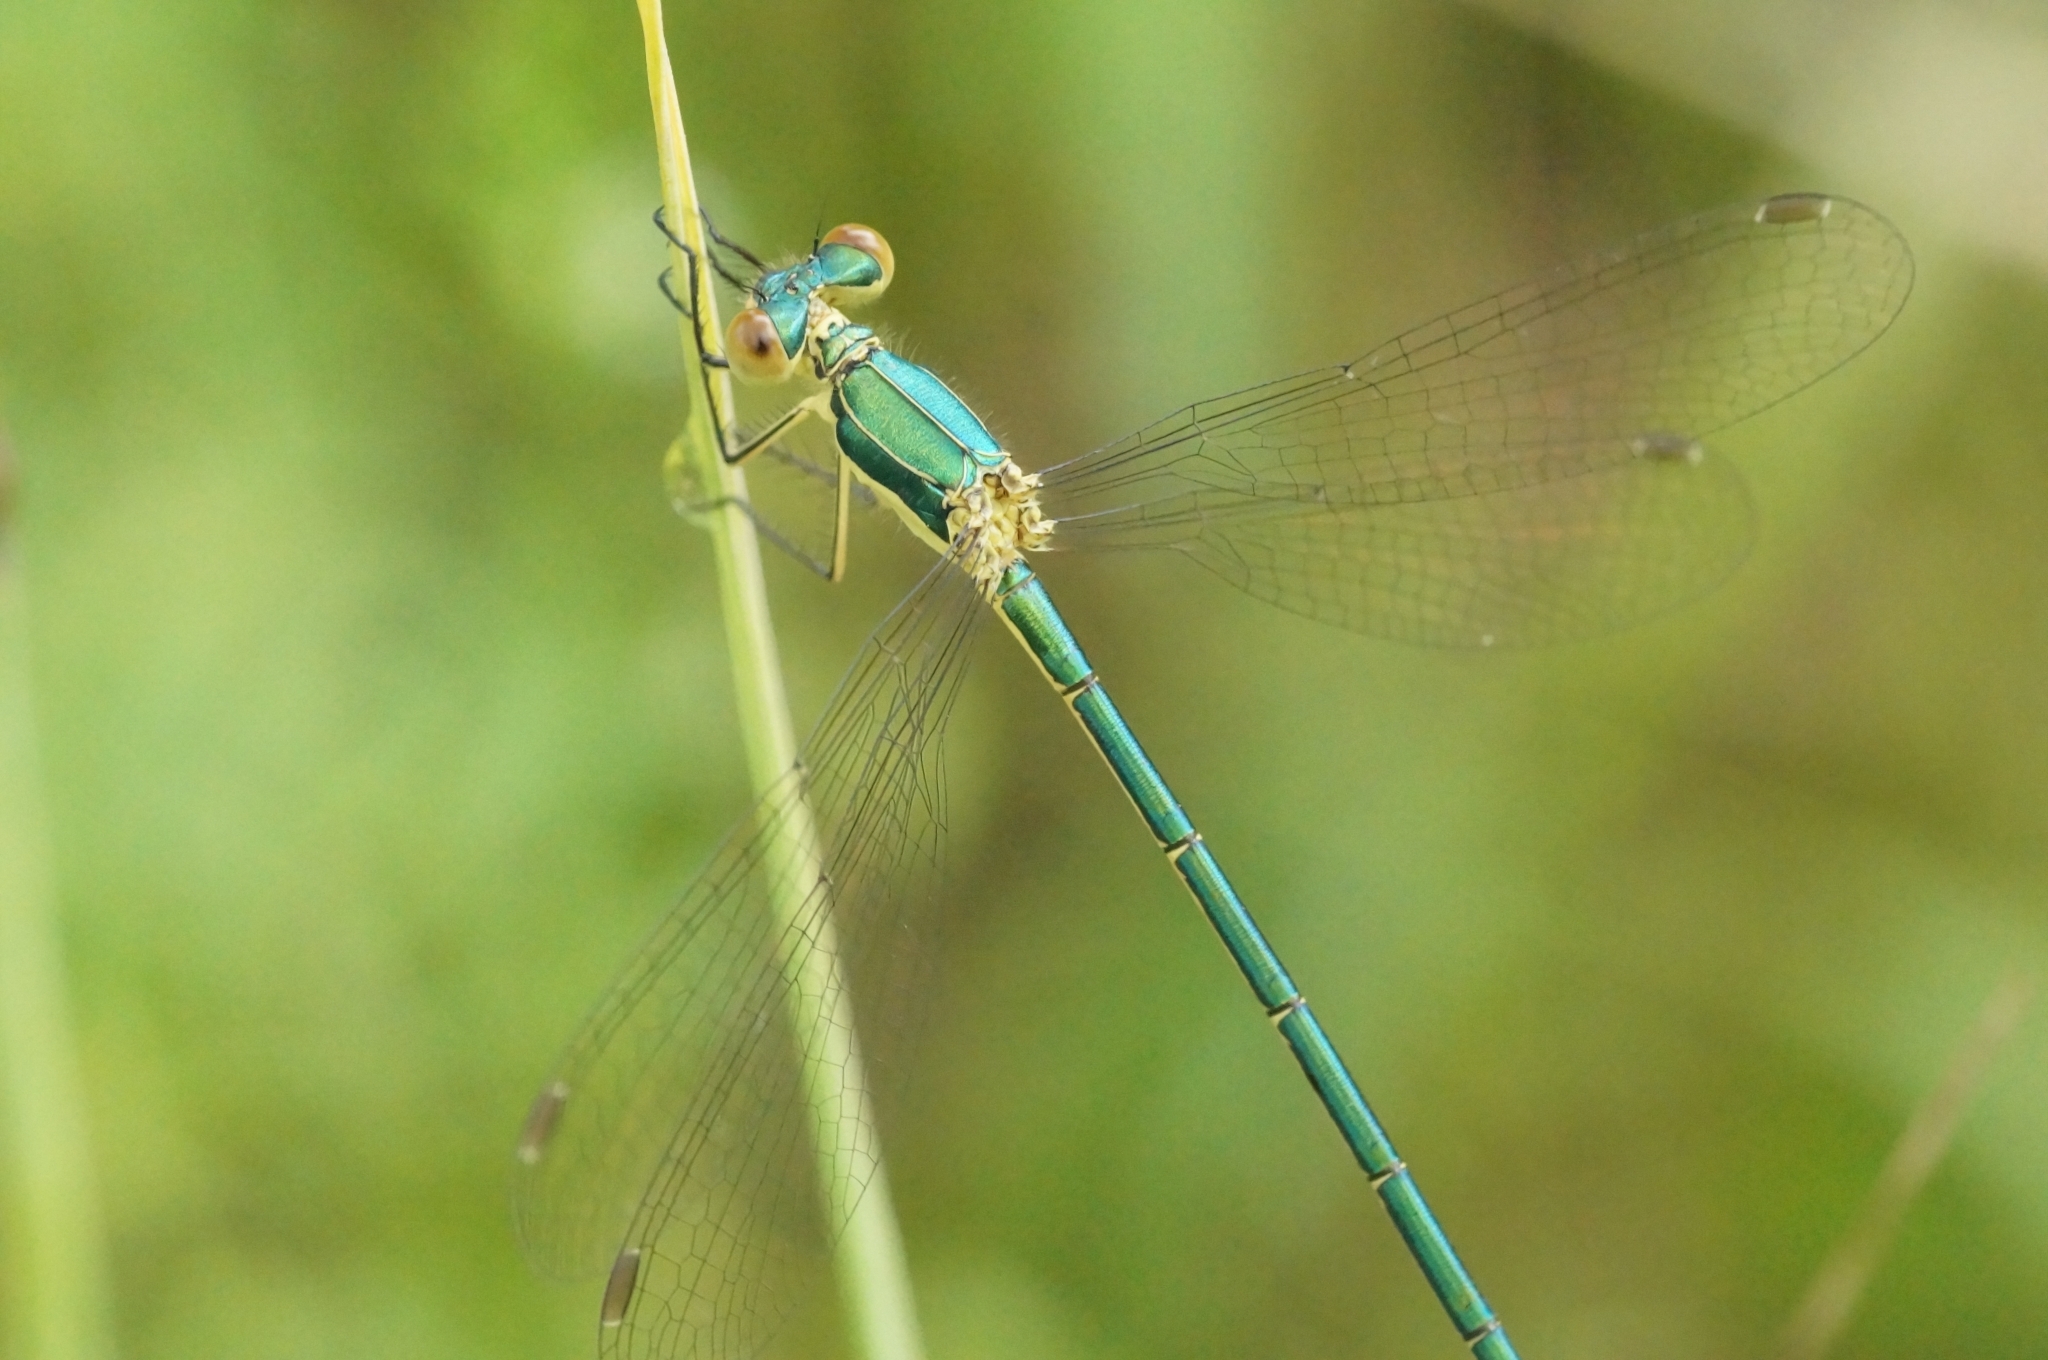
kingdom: Animalia
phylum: Arthropoda
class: Insecta
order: Odonata
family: Lestidae
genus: Lestes
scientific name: Lestes virens
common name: Small emerald spreadwing
